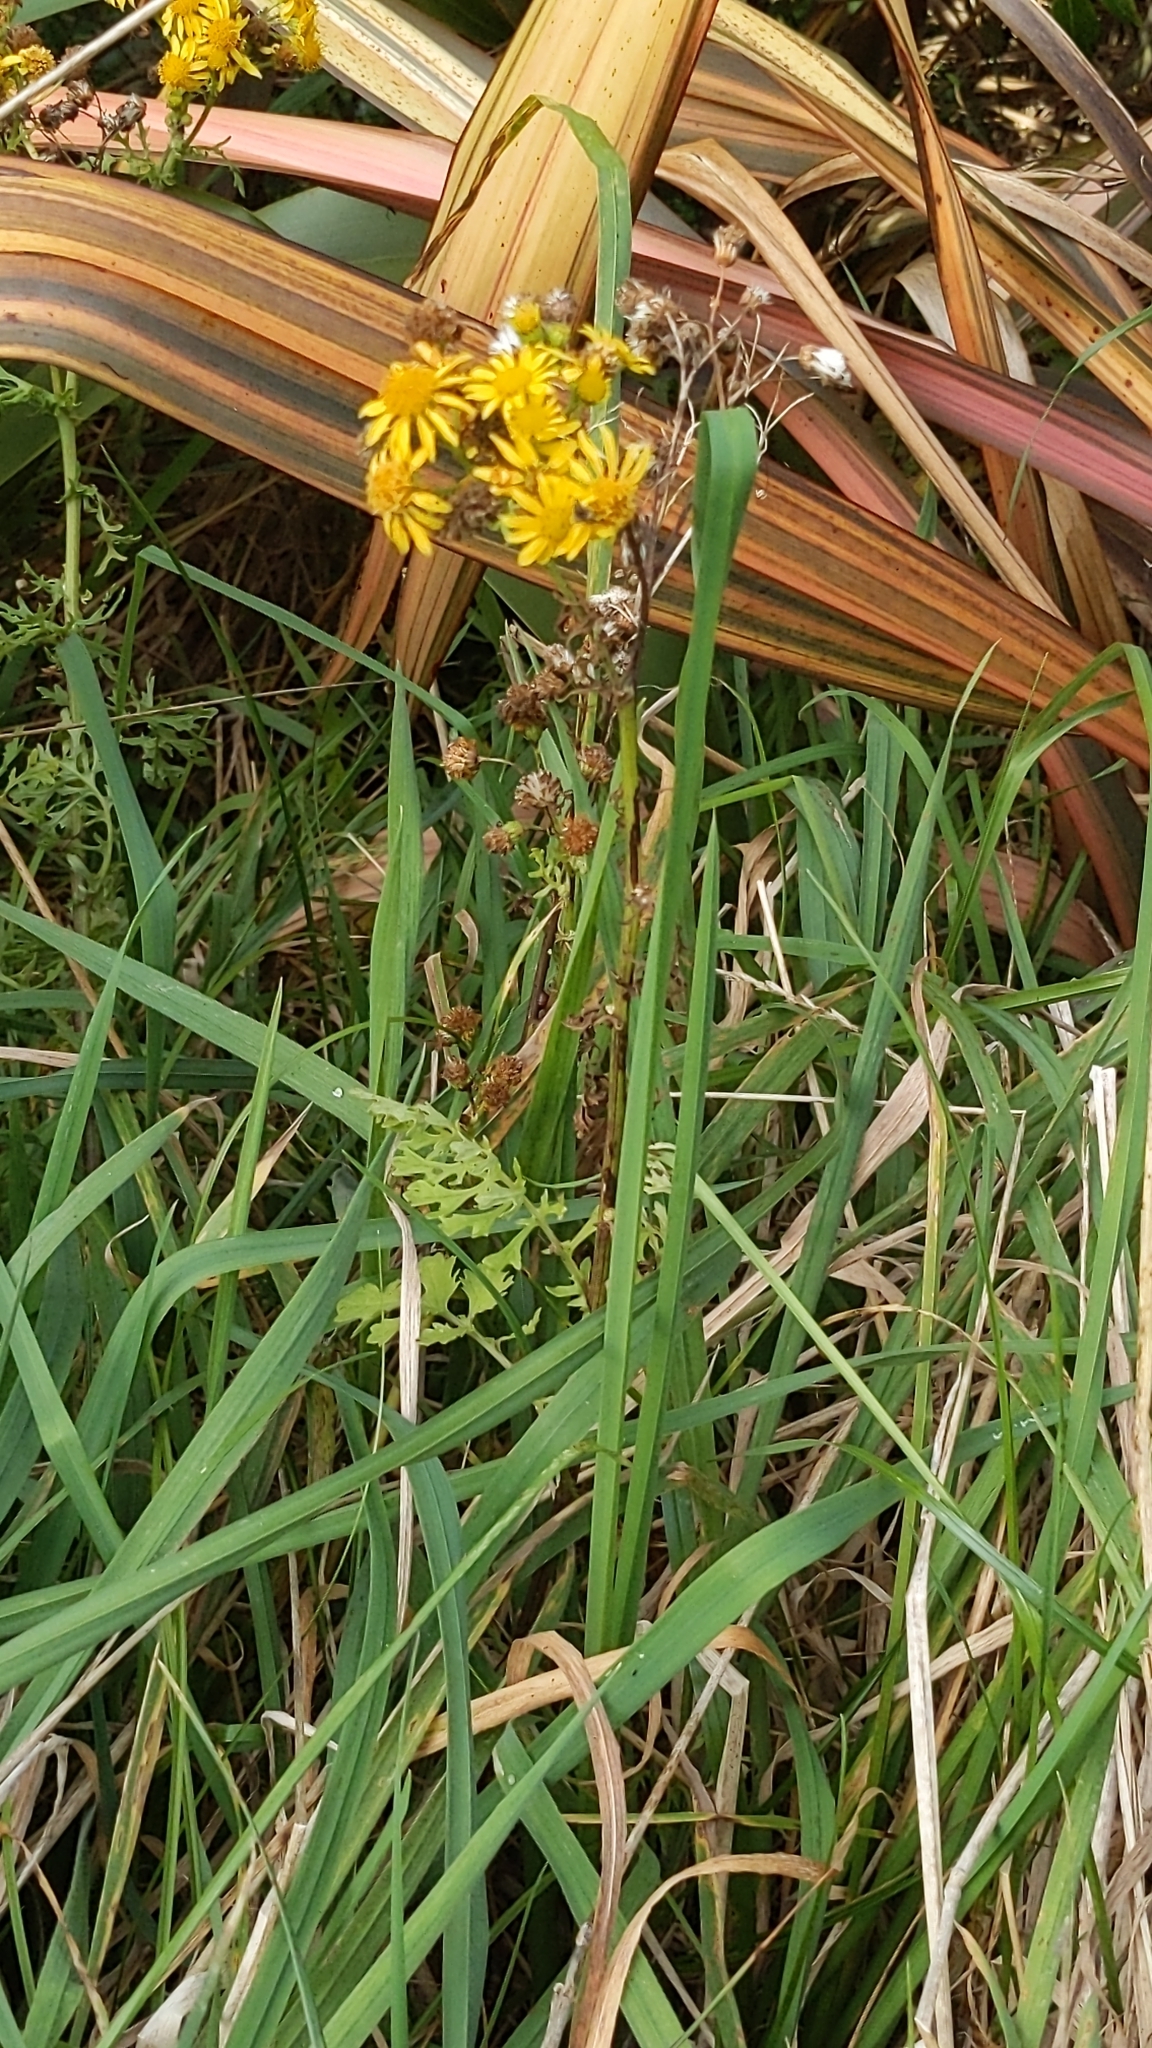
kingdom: Plantae
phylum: Tracheophyta
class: Magnoliopsida
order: Asterales
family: Asteraceae
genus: Jacobaea
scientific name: Jacobaea vulgaris
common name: Stinking willie
